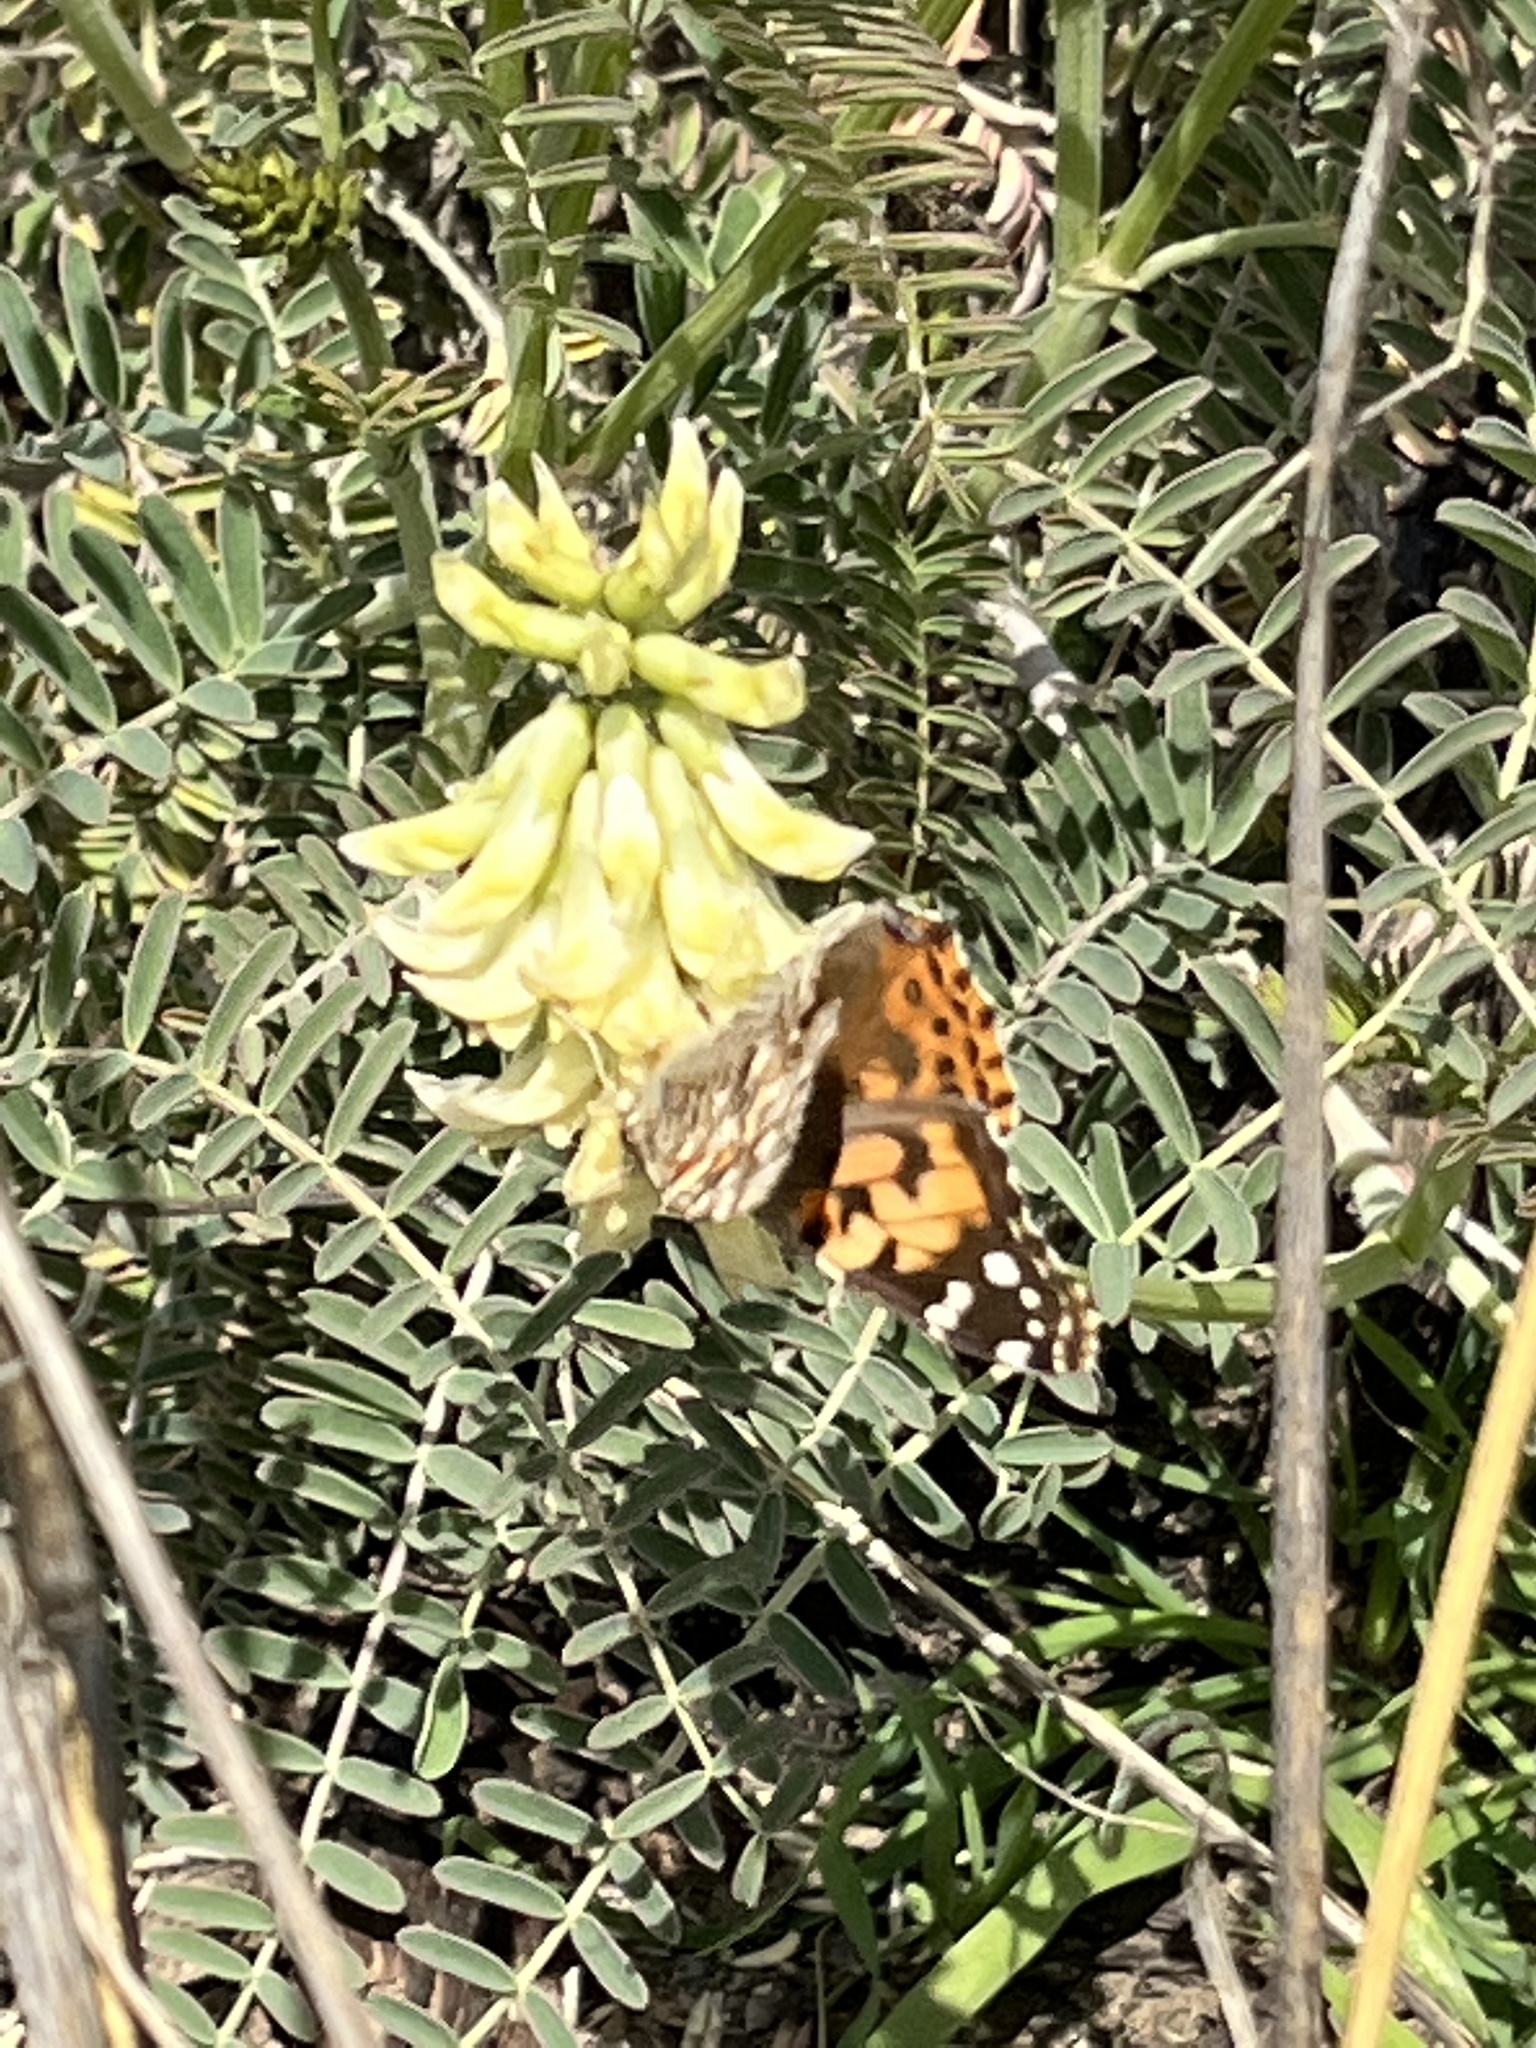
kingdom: Animalia
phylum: Arthropoda
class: Insecta
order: Lepidoptera
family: Nymphalidae
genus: Vanessa
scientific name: Vanessa cardui
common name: Painted lady
